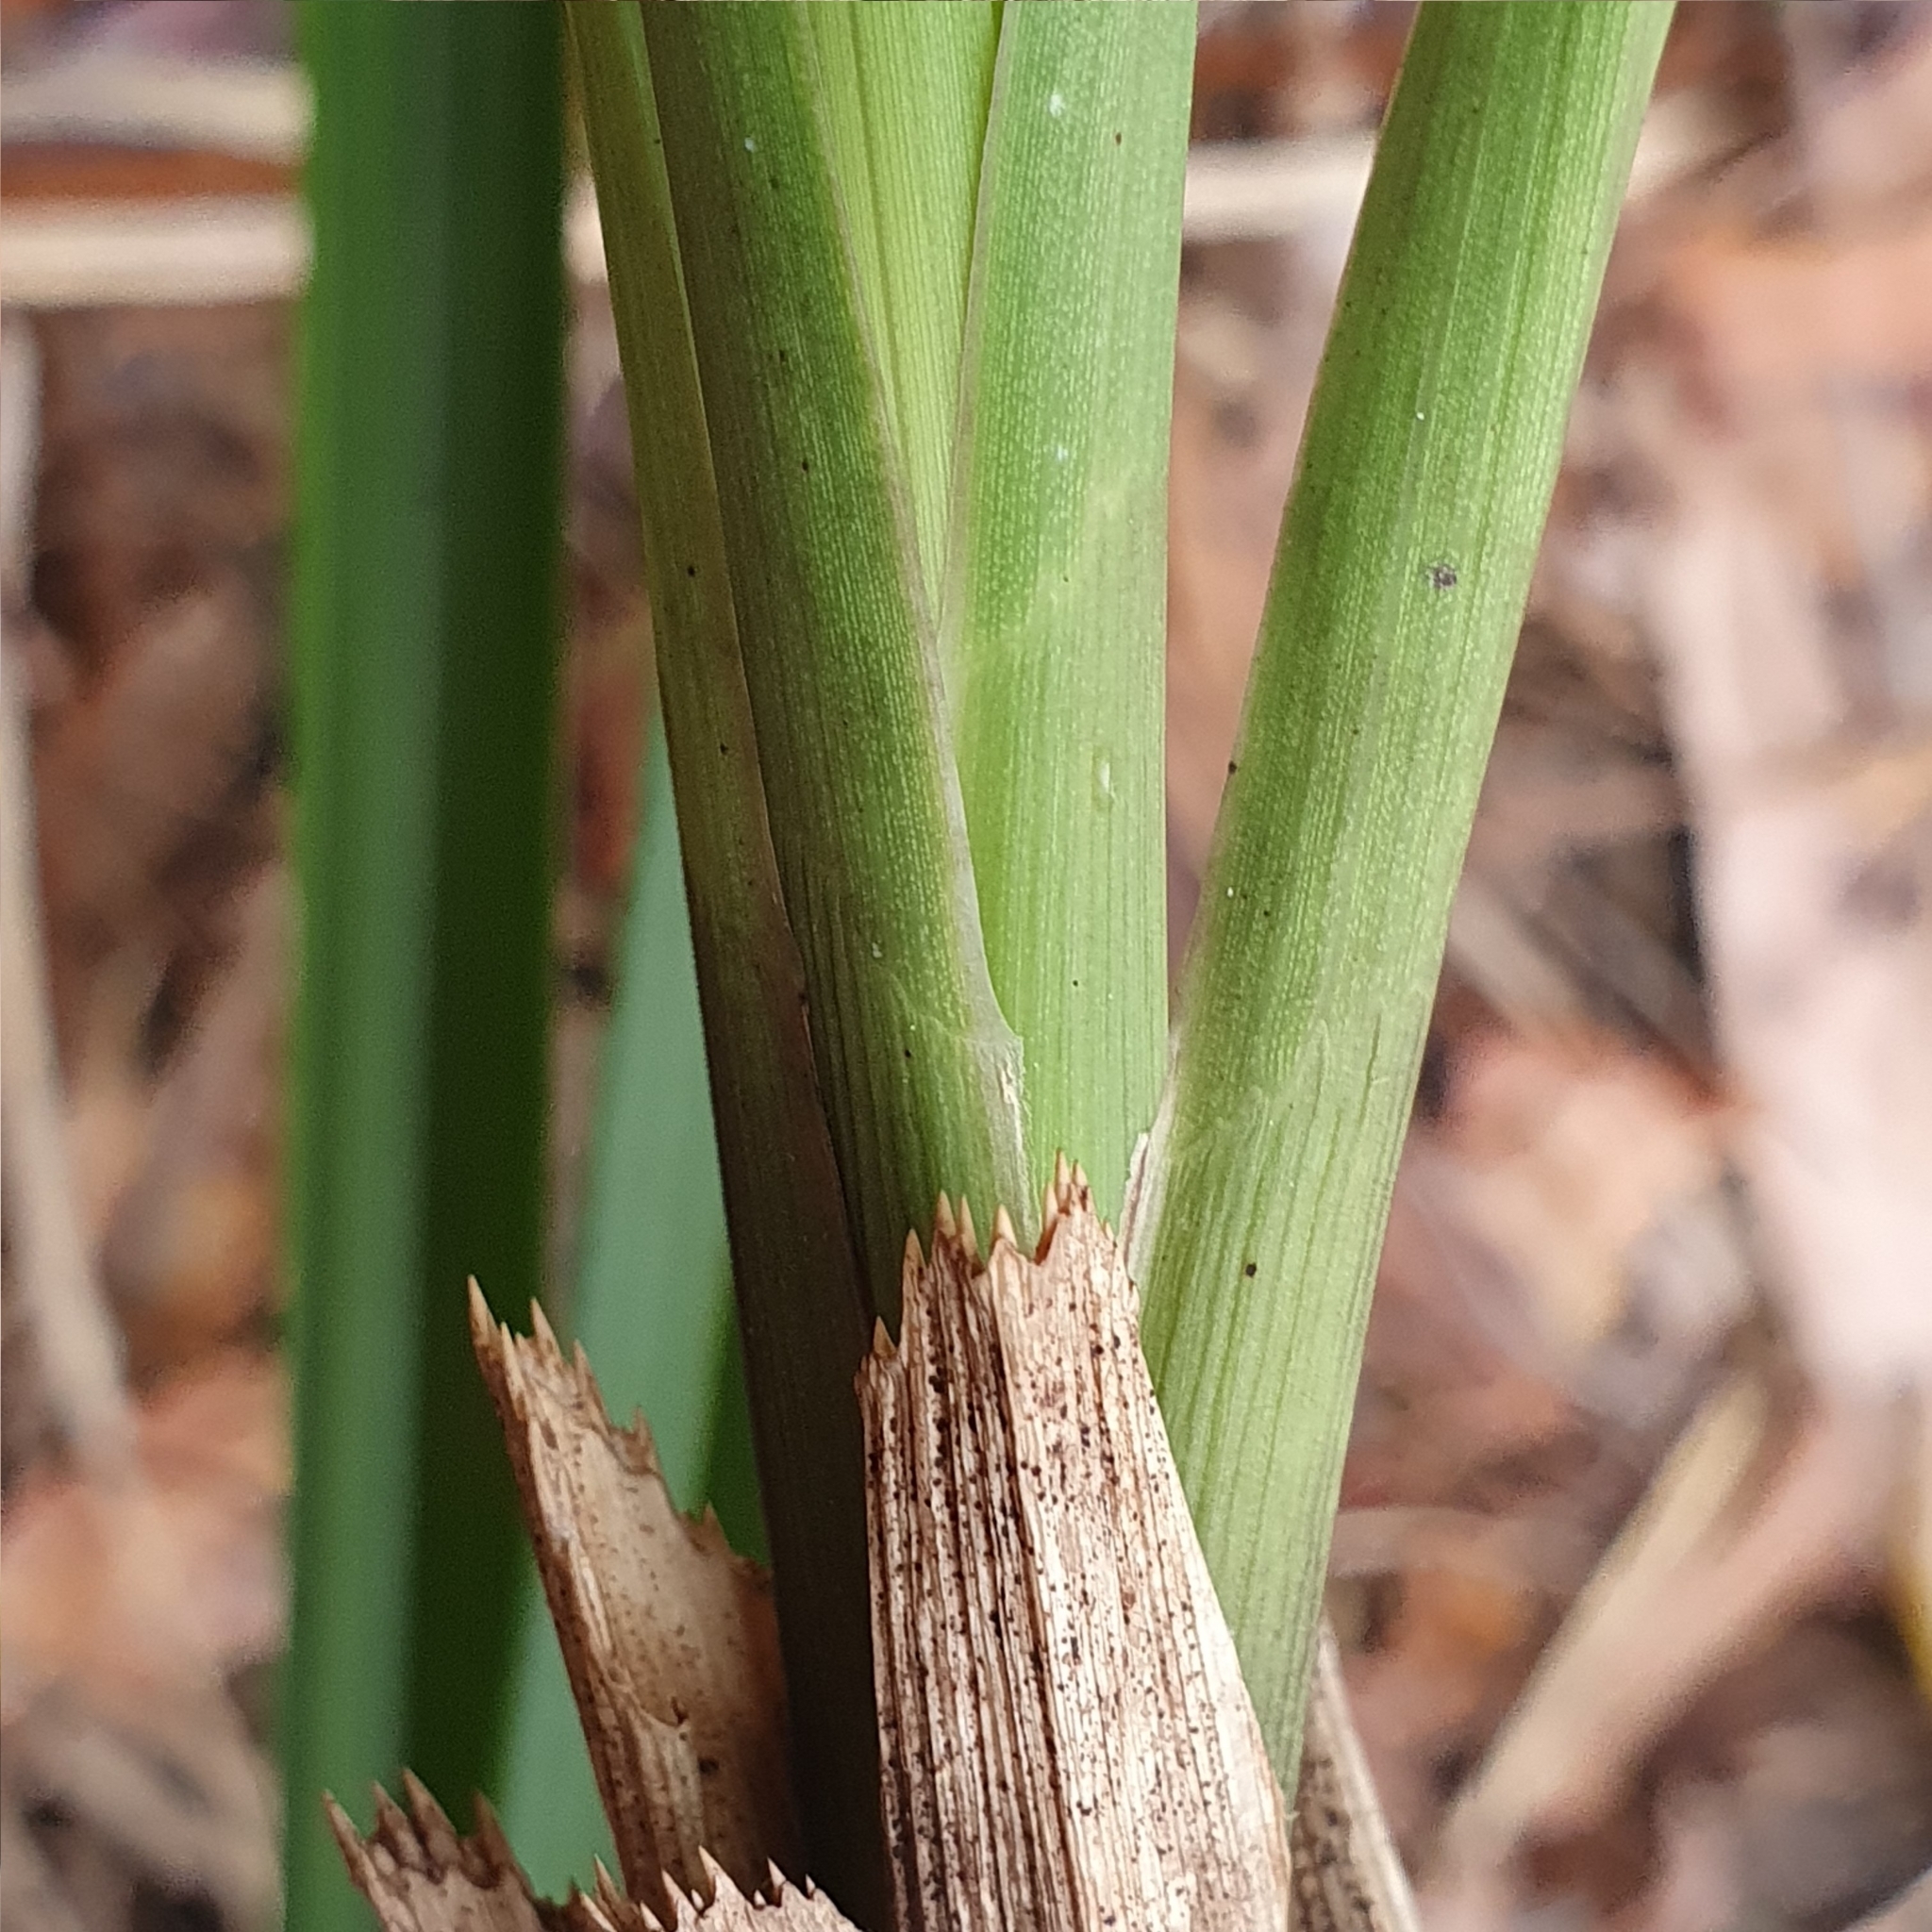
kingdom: Plantae
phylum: Tracheophyta
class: Liliopsida
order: Asparagales
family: Orchidaceae
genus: Cymbidium
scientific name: Cymbidium suave
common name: Snake orchid
